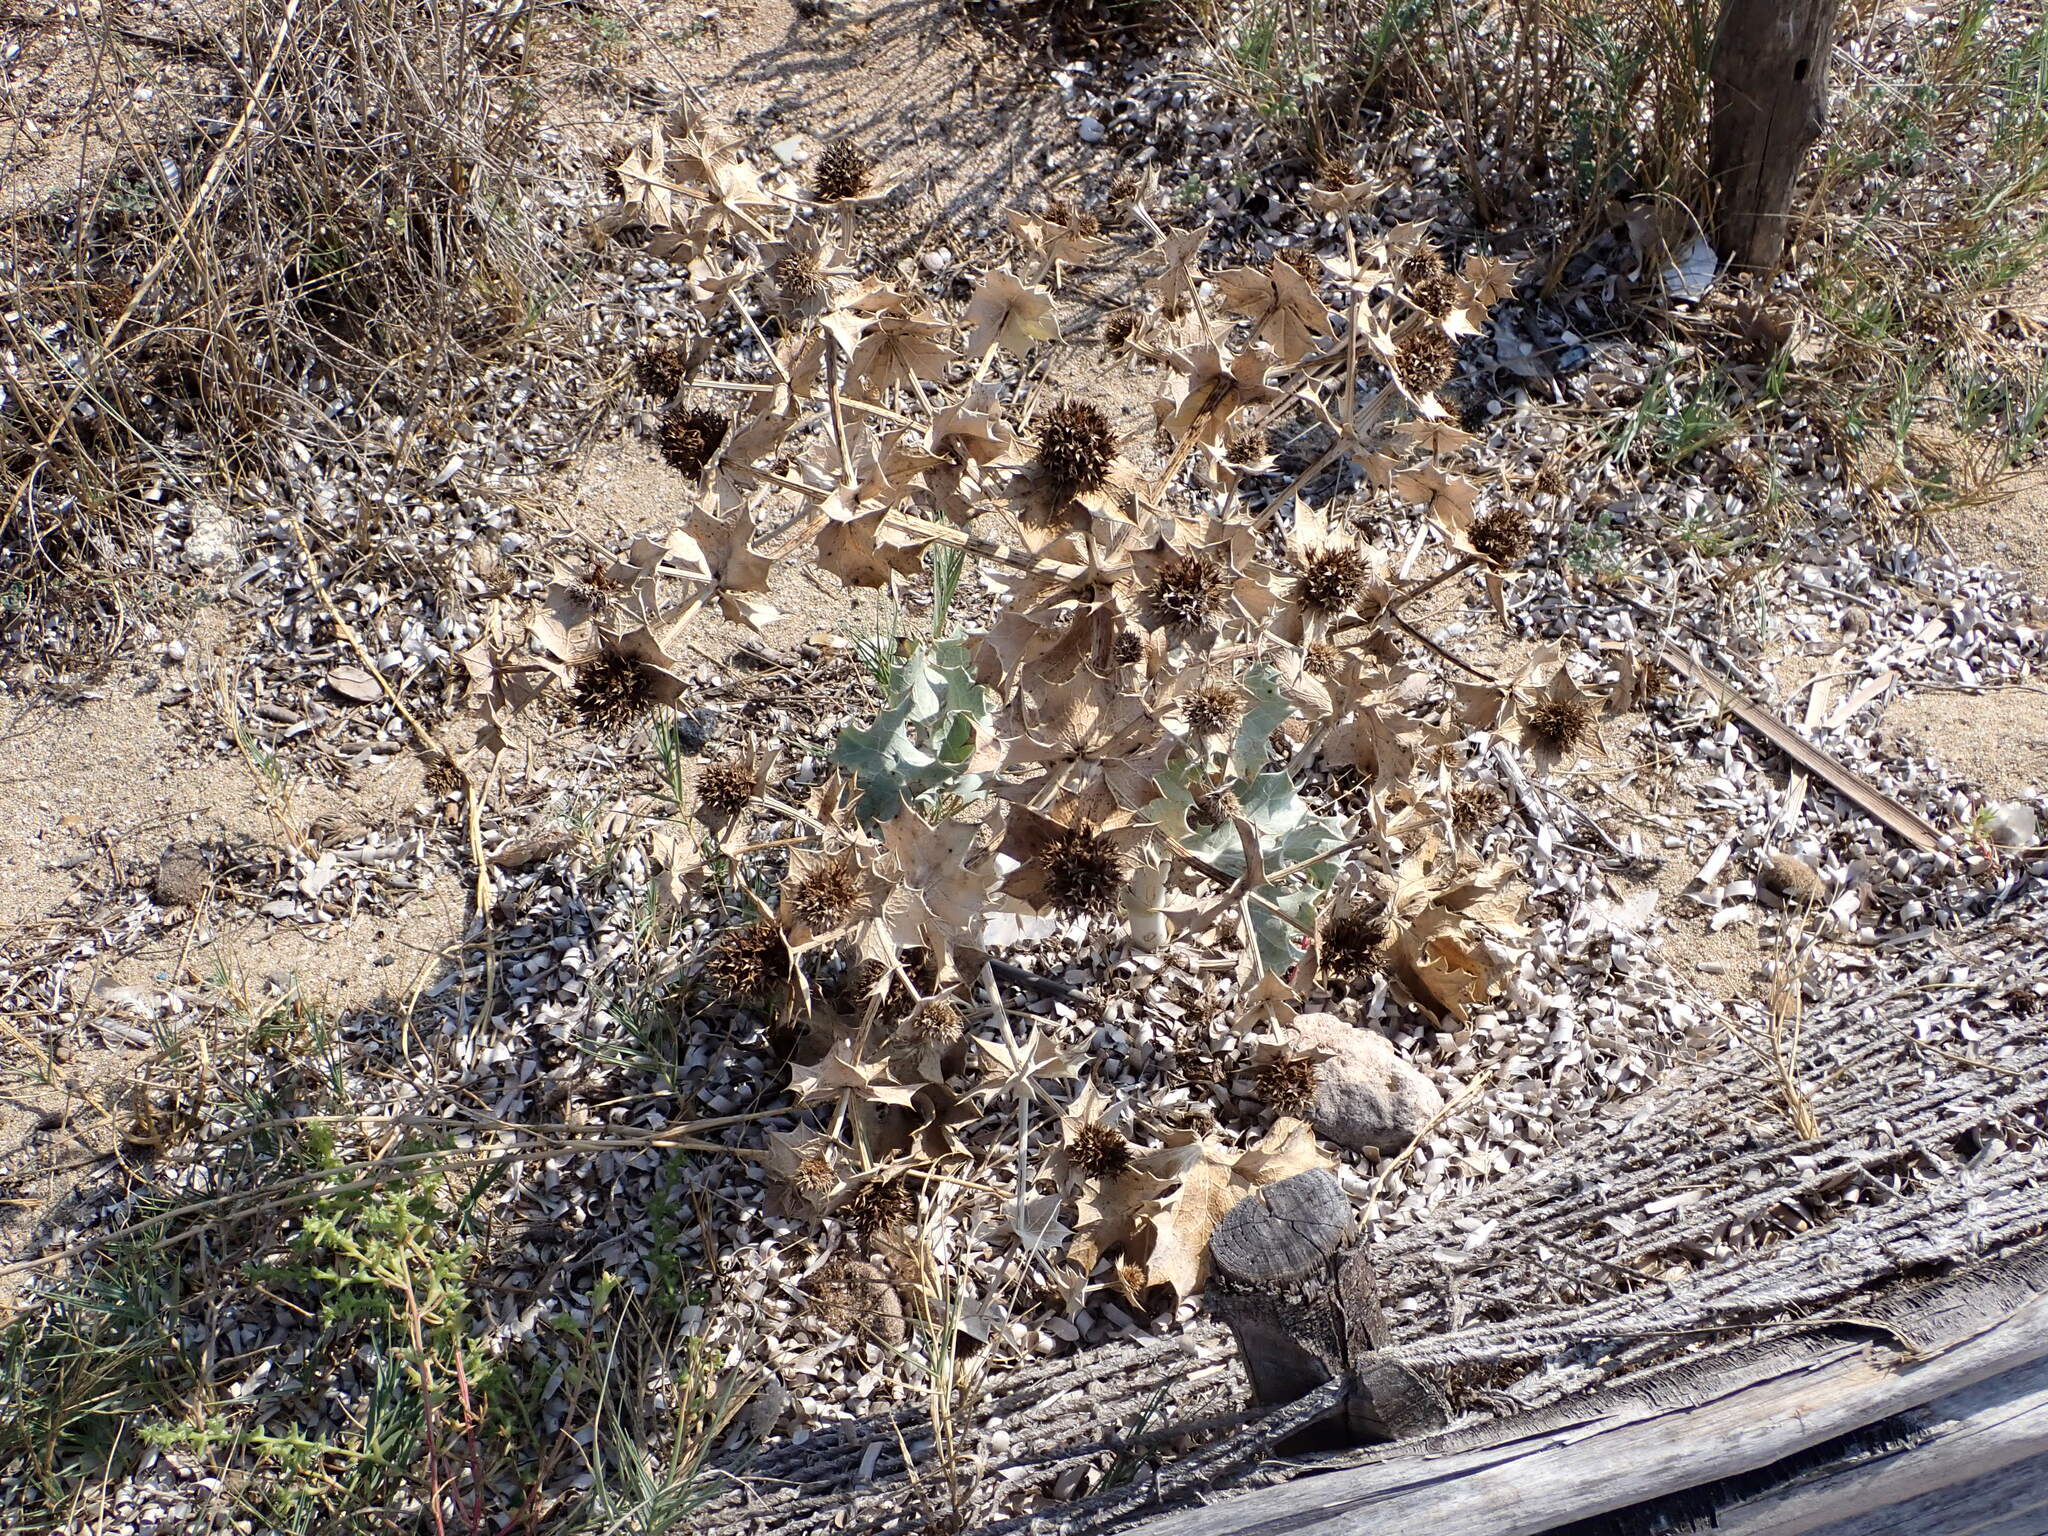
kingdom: Plantae
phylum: Tracheophyta
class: Magnoliopsida
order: Apiales
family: Apiaceae
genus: Eryngium
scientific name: Eryngium maritimum
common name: Sea-holly
